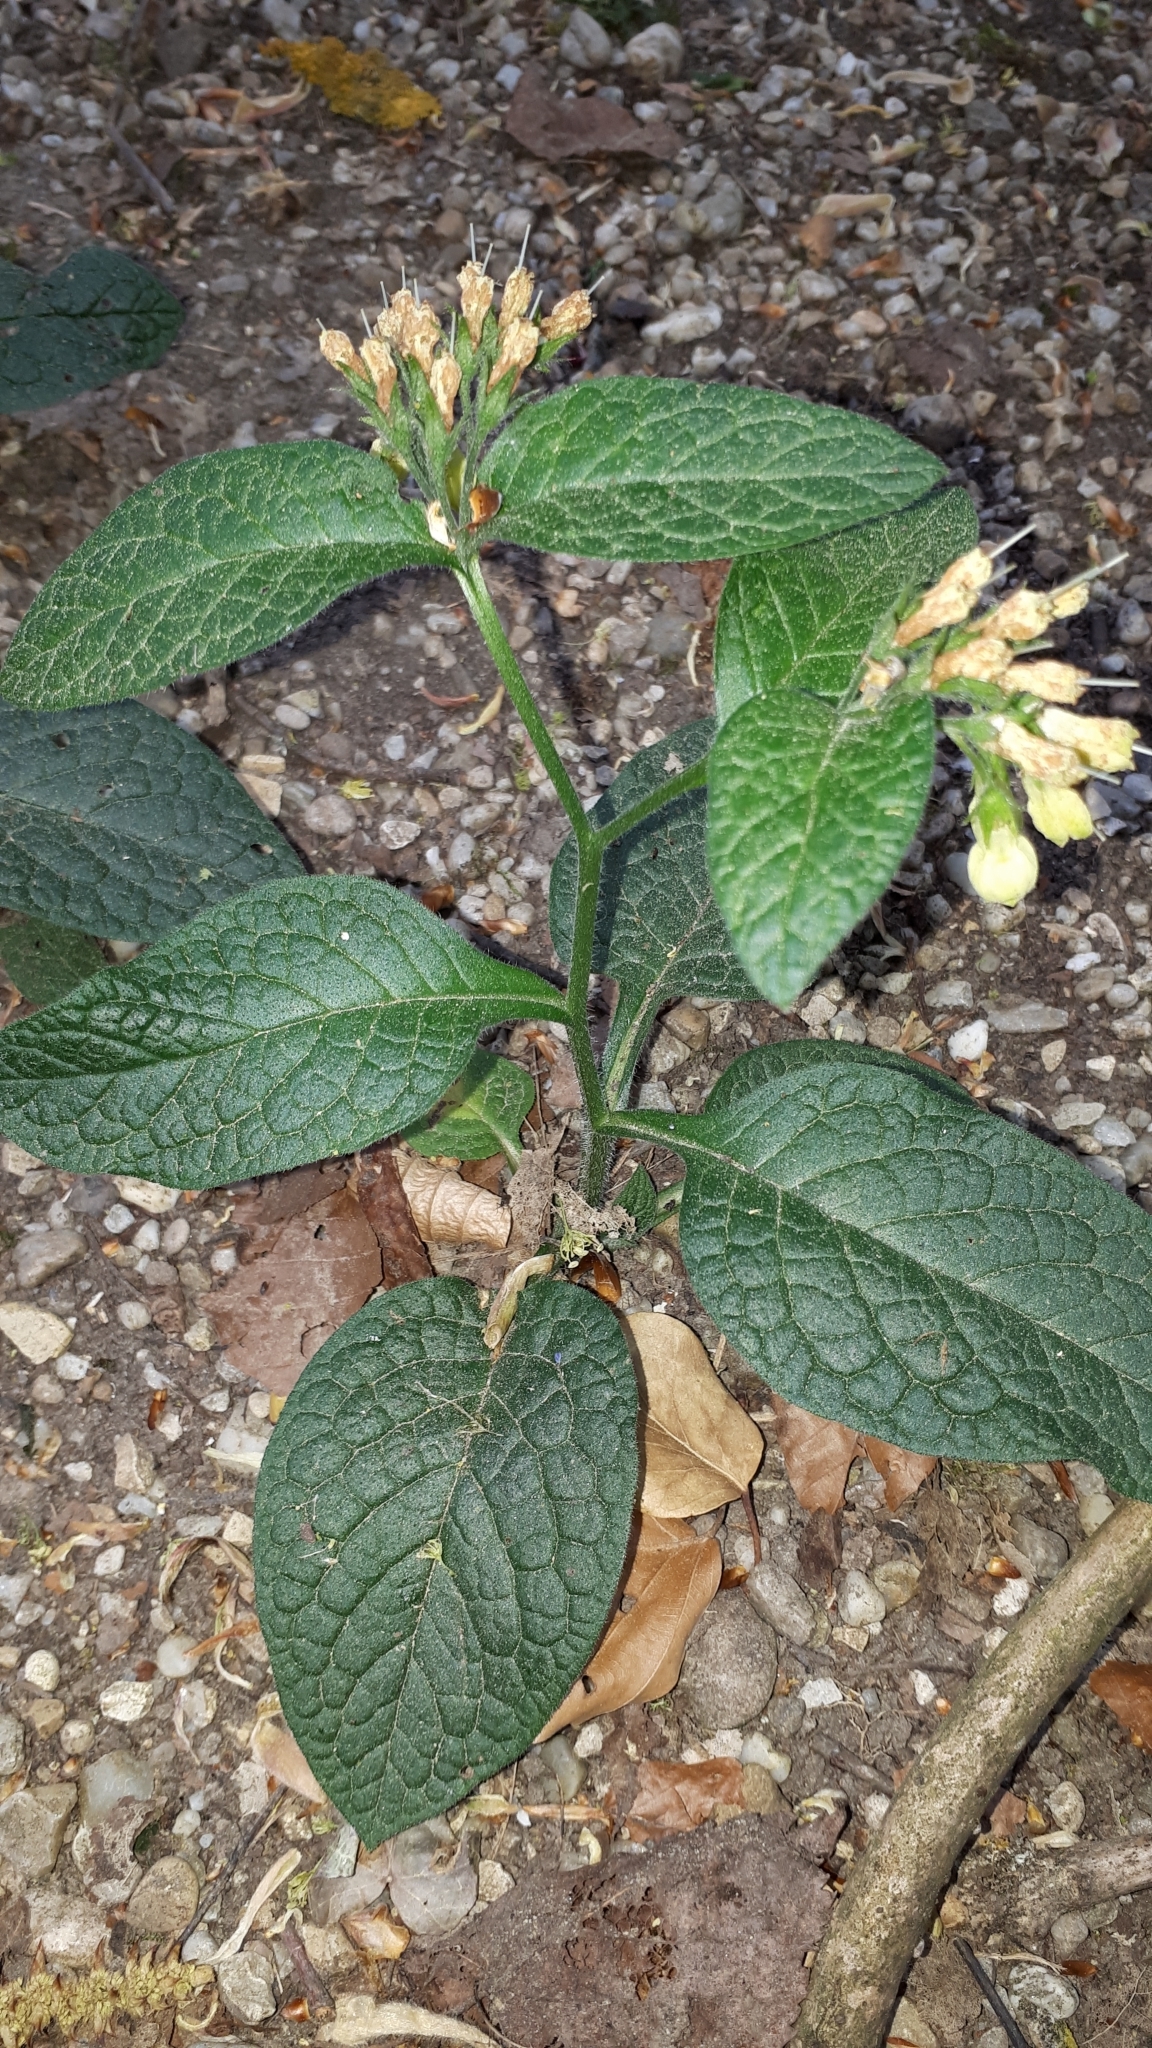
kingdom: Plantae
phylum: Tracheophyta
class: Magnoliopsida
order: Boraginales
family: Boraginaceae
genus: Symphytum
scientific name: Symphytum tuberosum
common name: Tuberous comfrey
